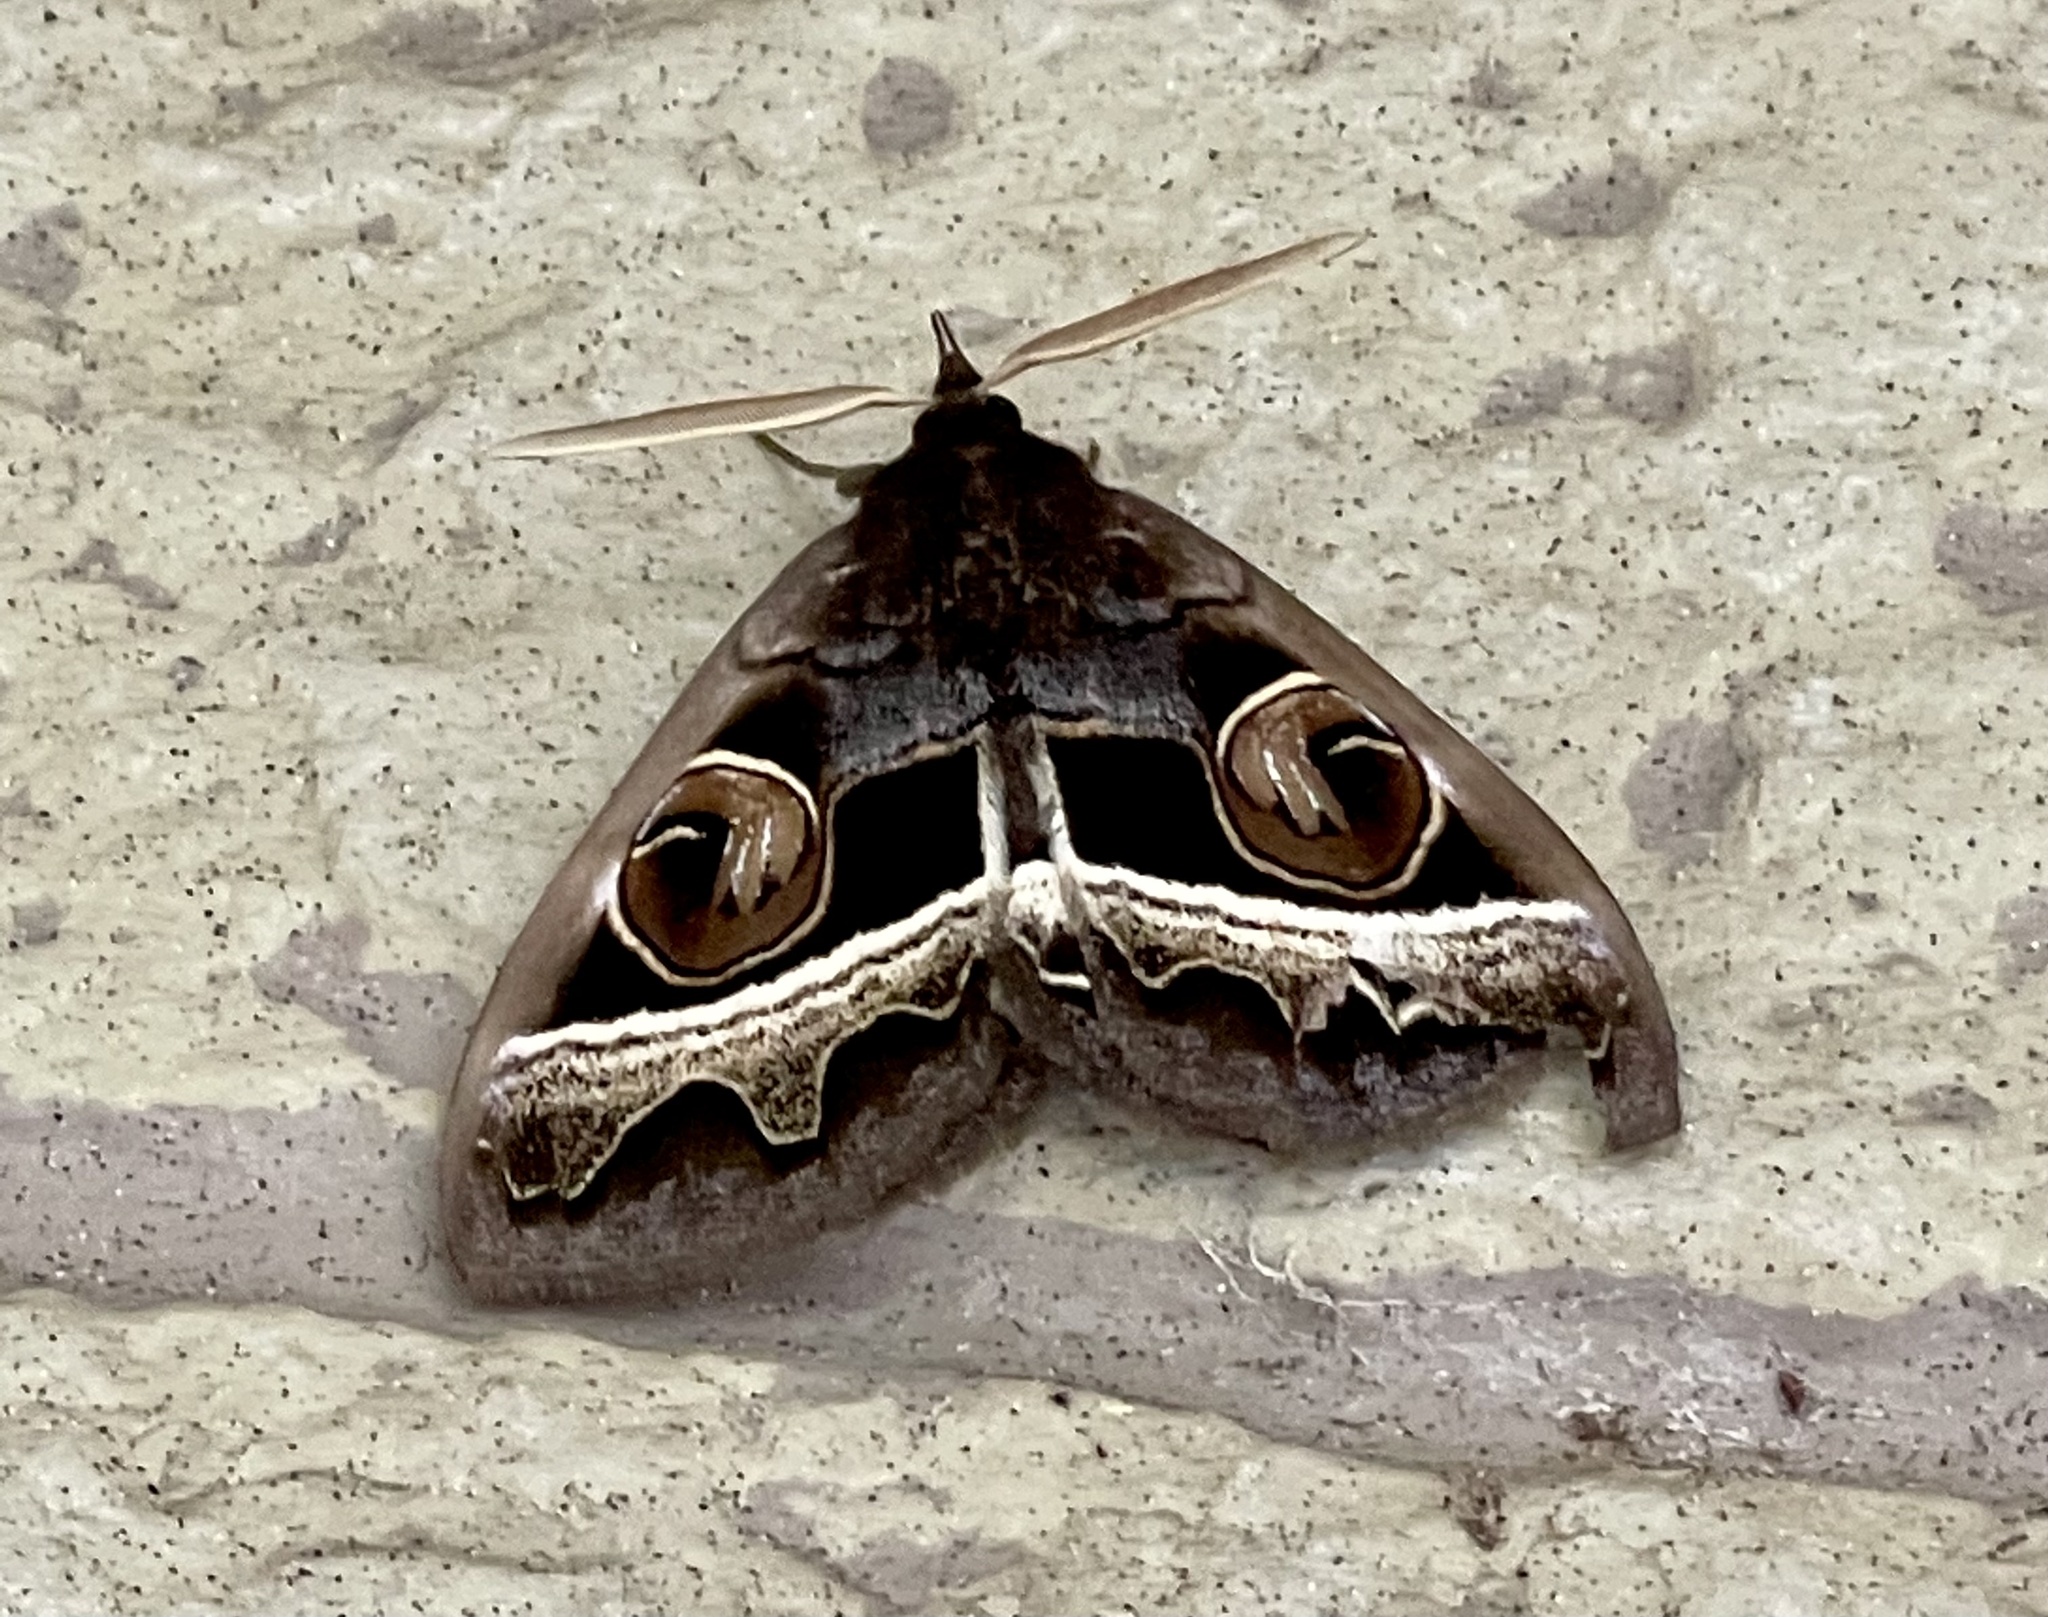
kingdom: Animalia
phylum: Arthropoda
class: Insecta
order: Lepidoptera
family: Erebidae
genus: Metopta
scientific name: Metopta rectifasciata
